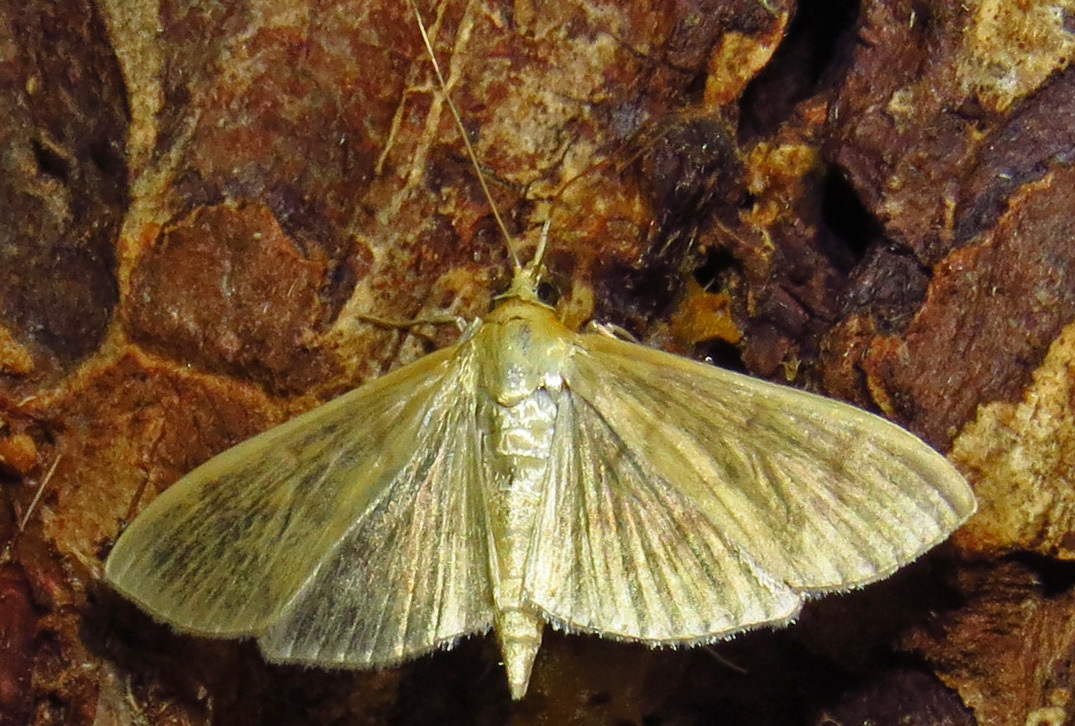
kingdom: Animalia
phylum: Arthropoda
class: Insecta
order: Lepidoptera
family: Crambidae
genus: Pleuroptya
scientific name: Pleuroptya silicalis
